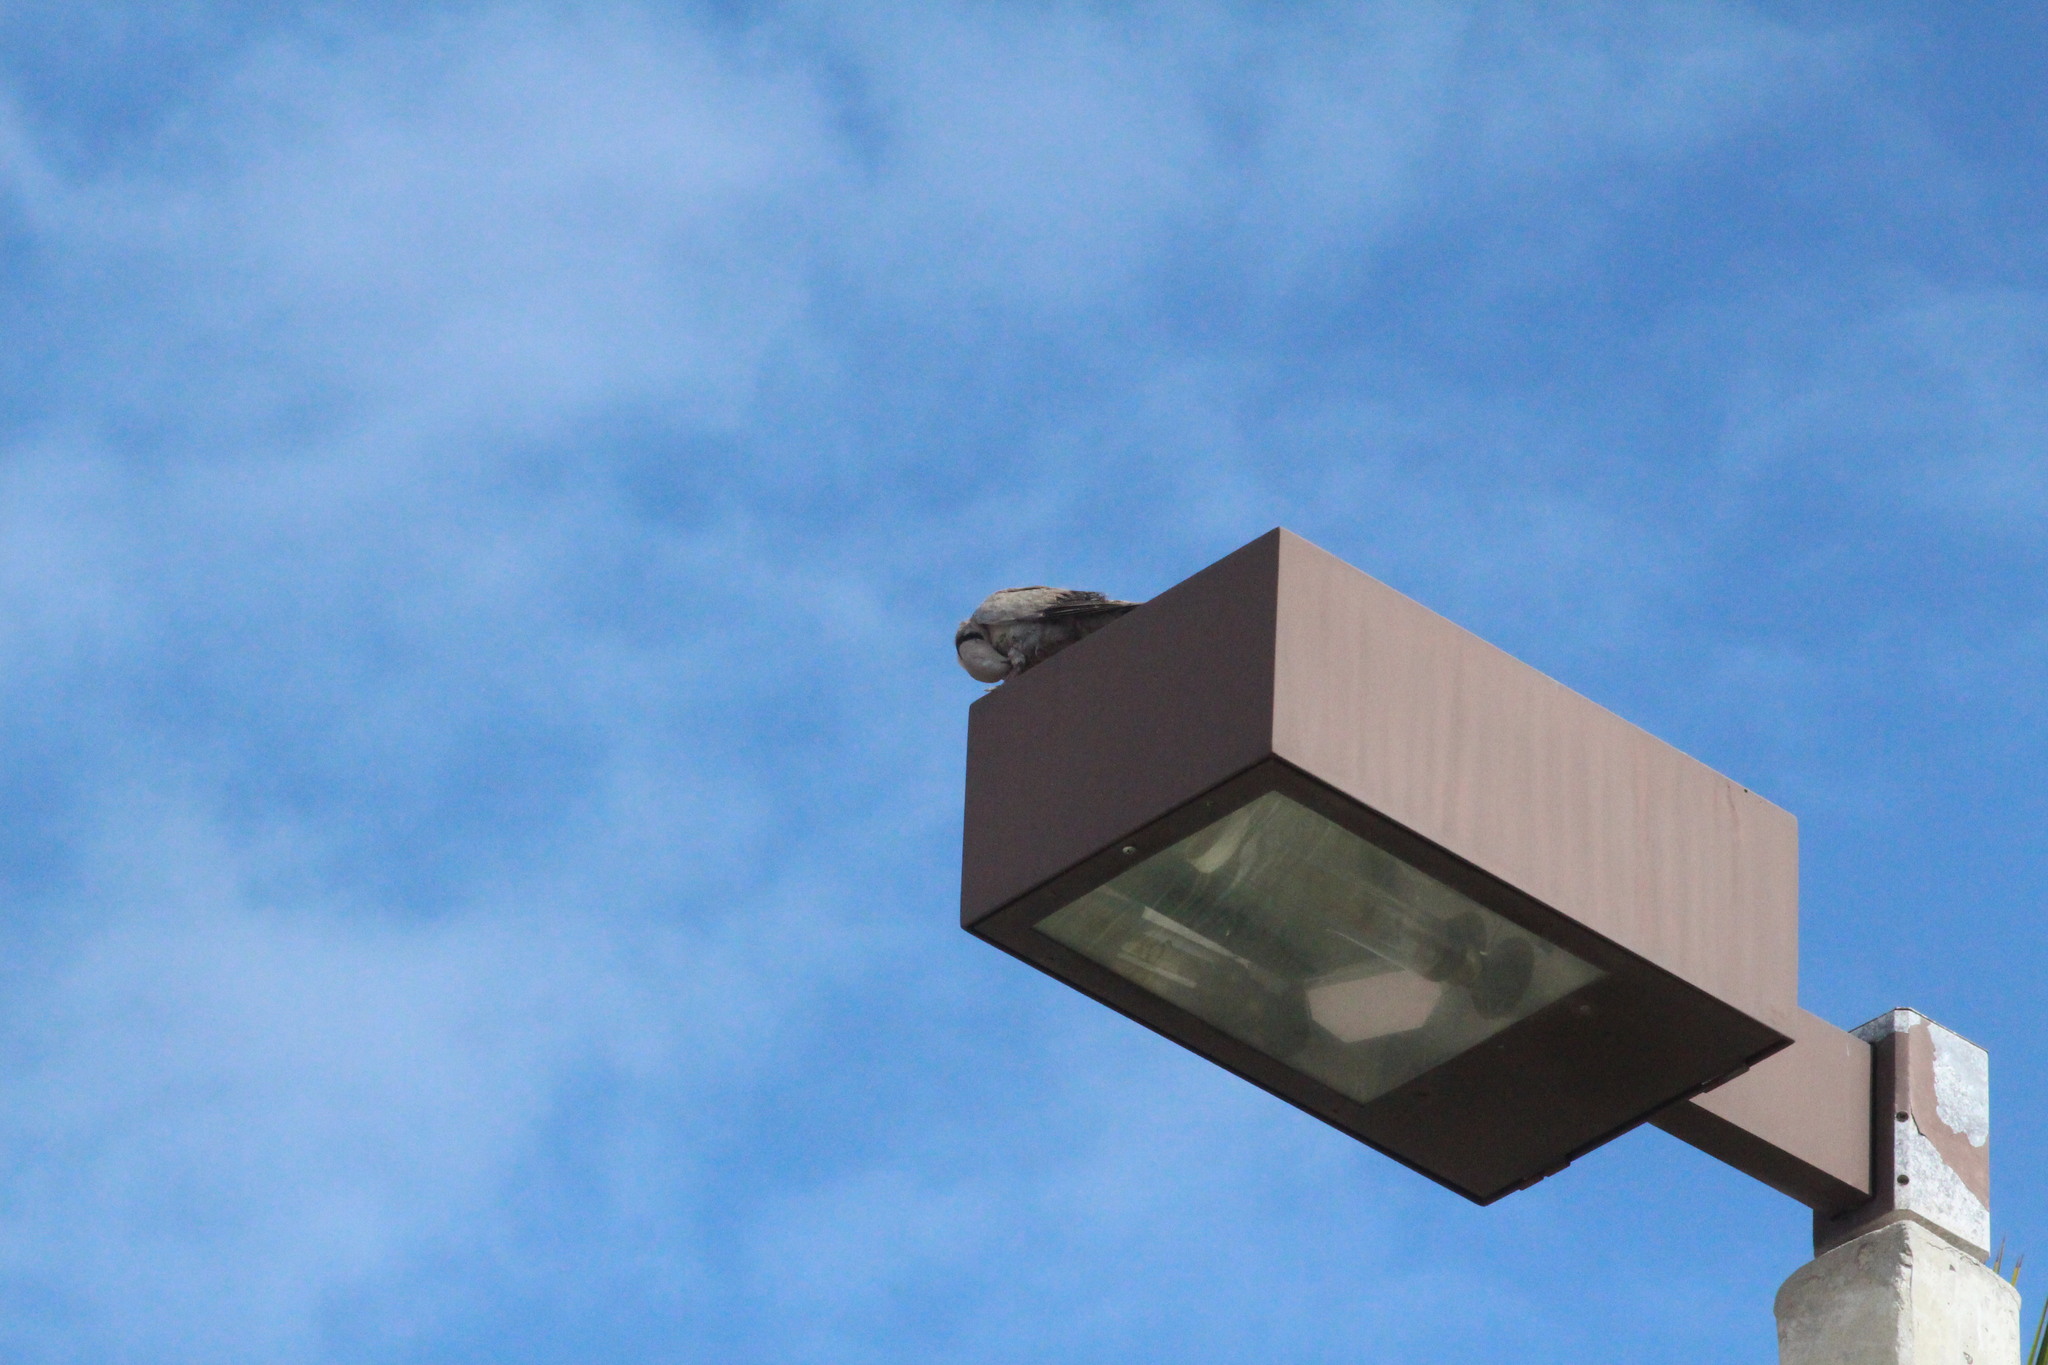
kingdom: Animalia
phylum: Chordata
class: Aves
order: Columbiformes
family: Columbidae
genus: Streptopelia
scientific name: Streptopelia decaocto
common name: Eurasian collared dove
